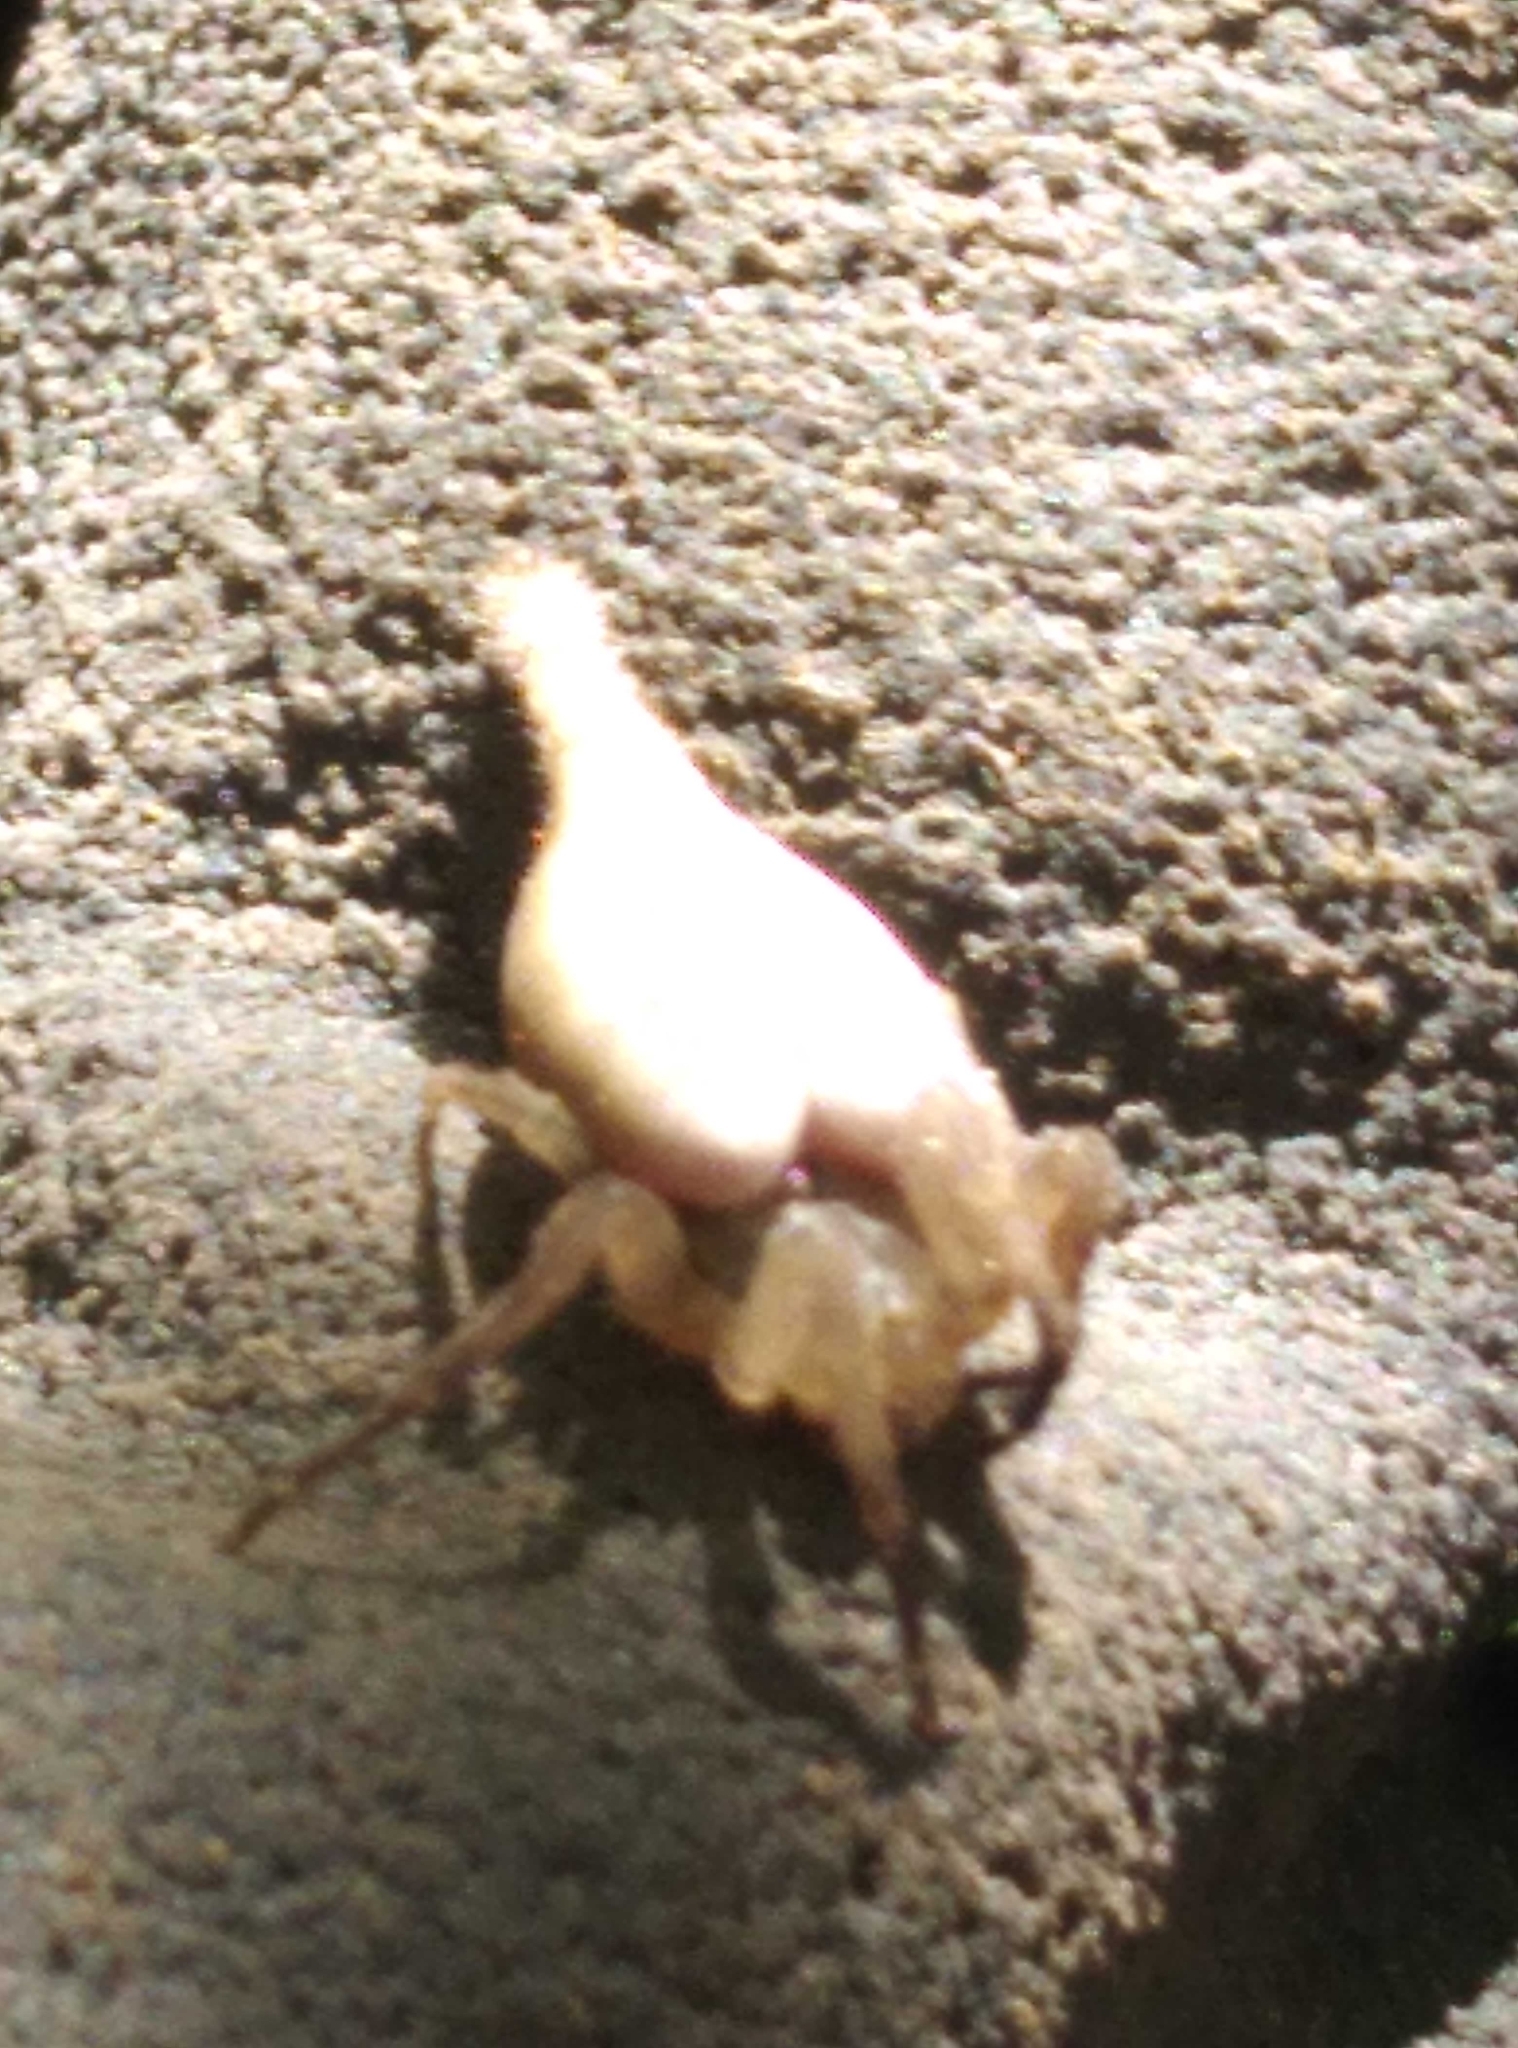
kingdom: Animalia
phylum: Arthropoda
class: Arachnida
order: Araneae
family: Araneidae
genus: Arachnura
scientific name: Arachnura feredayi
